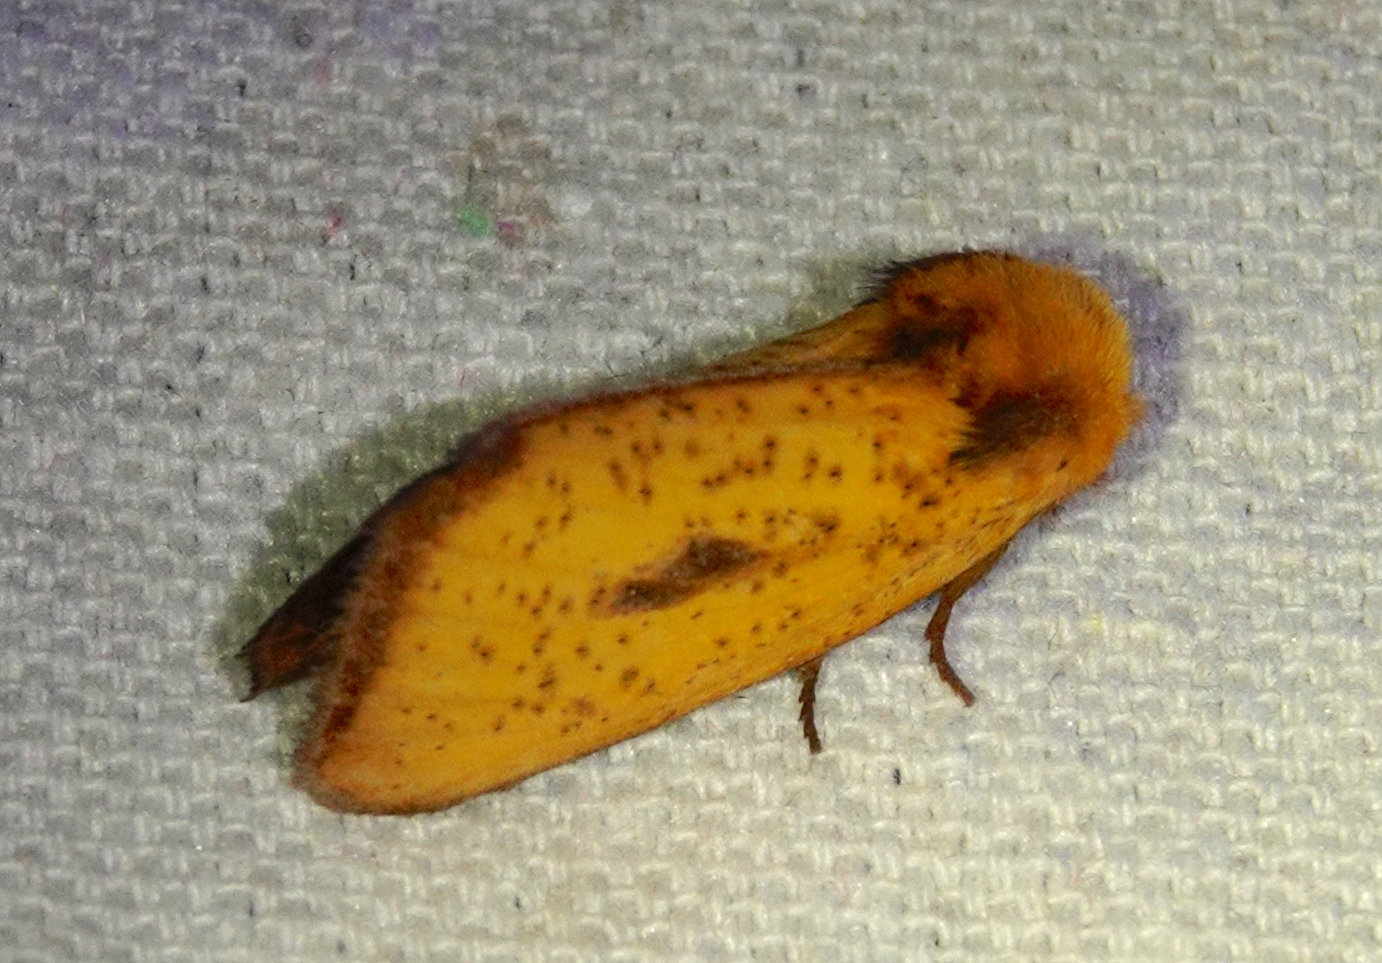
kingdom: Animalia
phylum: Arthropoda
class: Insecta
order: Lepidoptera
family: Notodontidae
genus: Antheua
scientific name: Antheua
